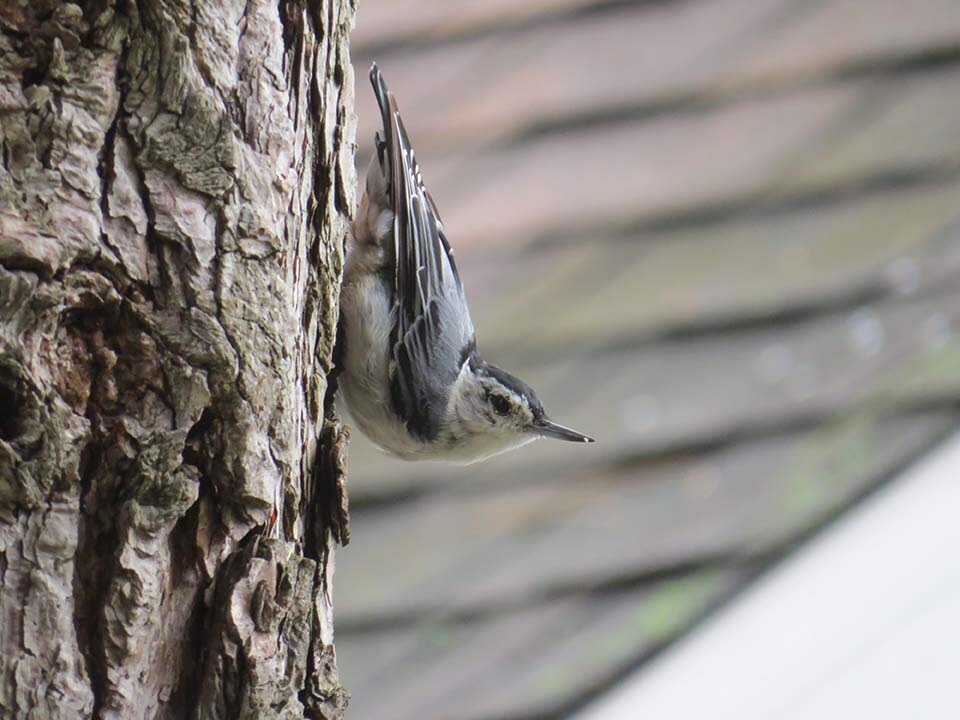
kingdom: Animalia
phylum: Chordata
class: Aves
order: Passeriformes
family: Sittidae
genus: Sitta
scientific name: Sitta carolinensis
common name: White-breasted nuthatch
